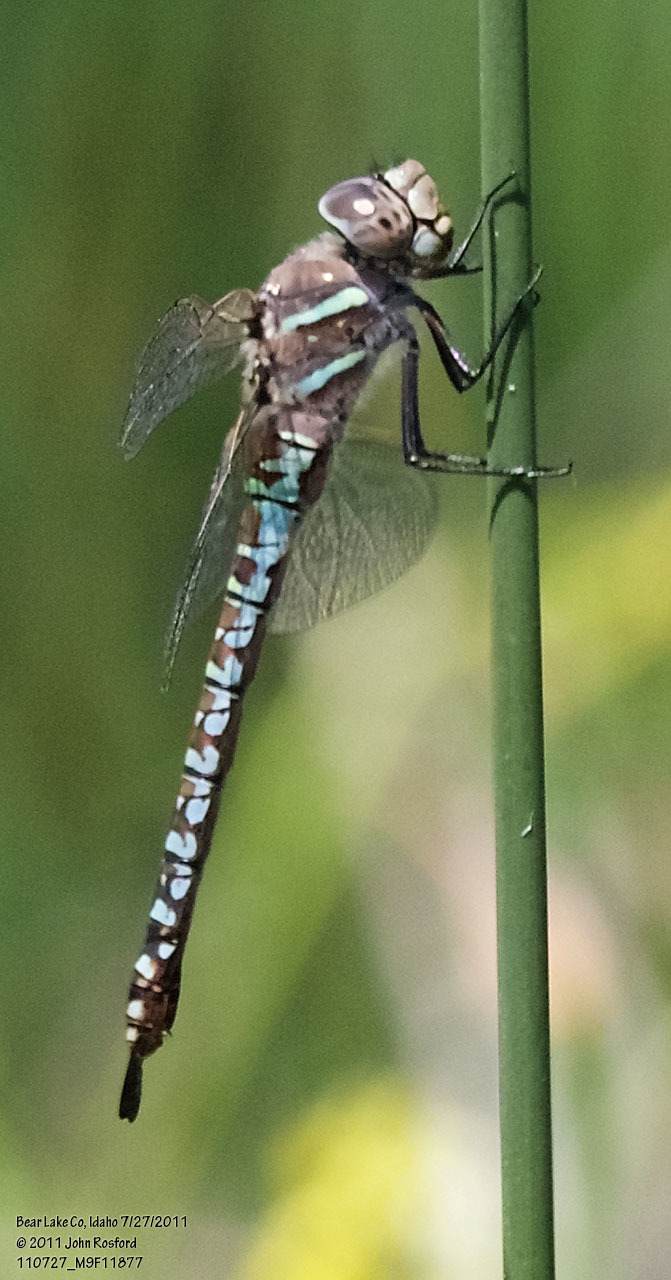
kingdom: Animalia
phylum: Arthropoda
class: Insecta
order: Odonata
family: Aeshnidae
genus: Aeshna
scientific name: Aeshna interrupta
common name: Variable darner
